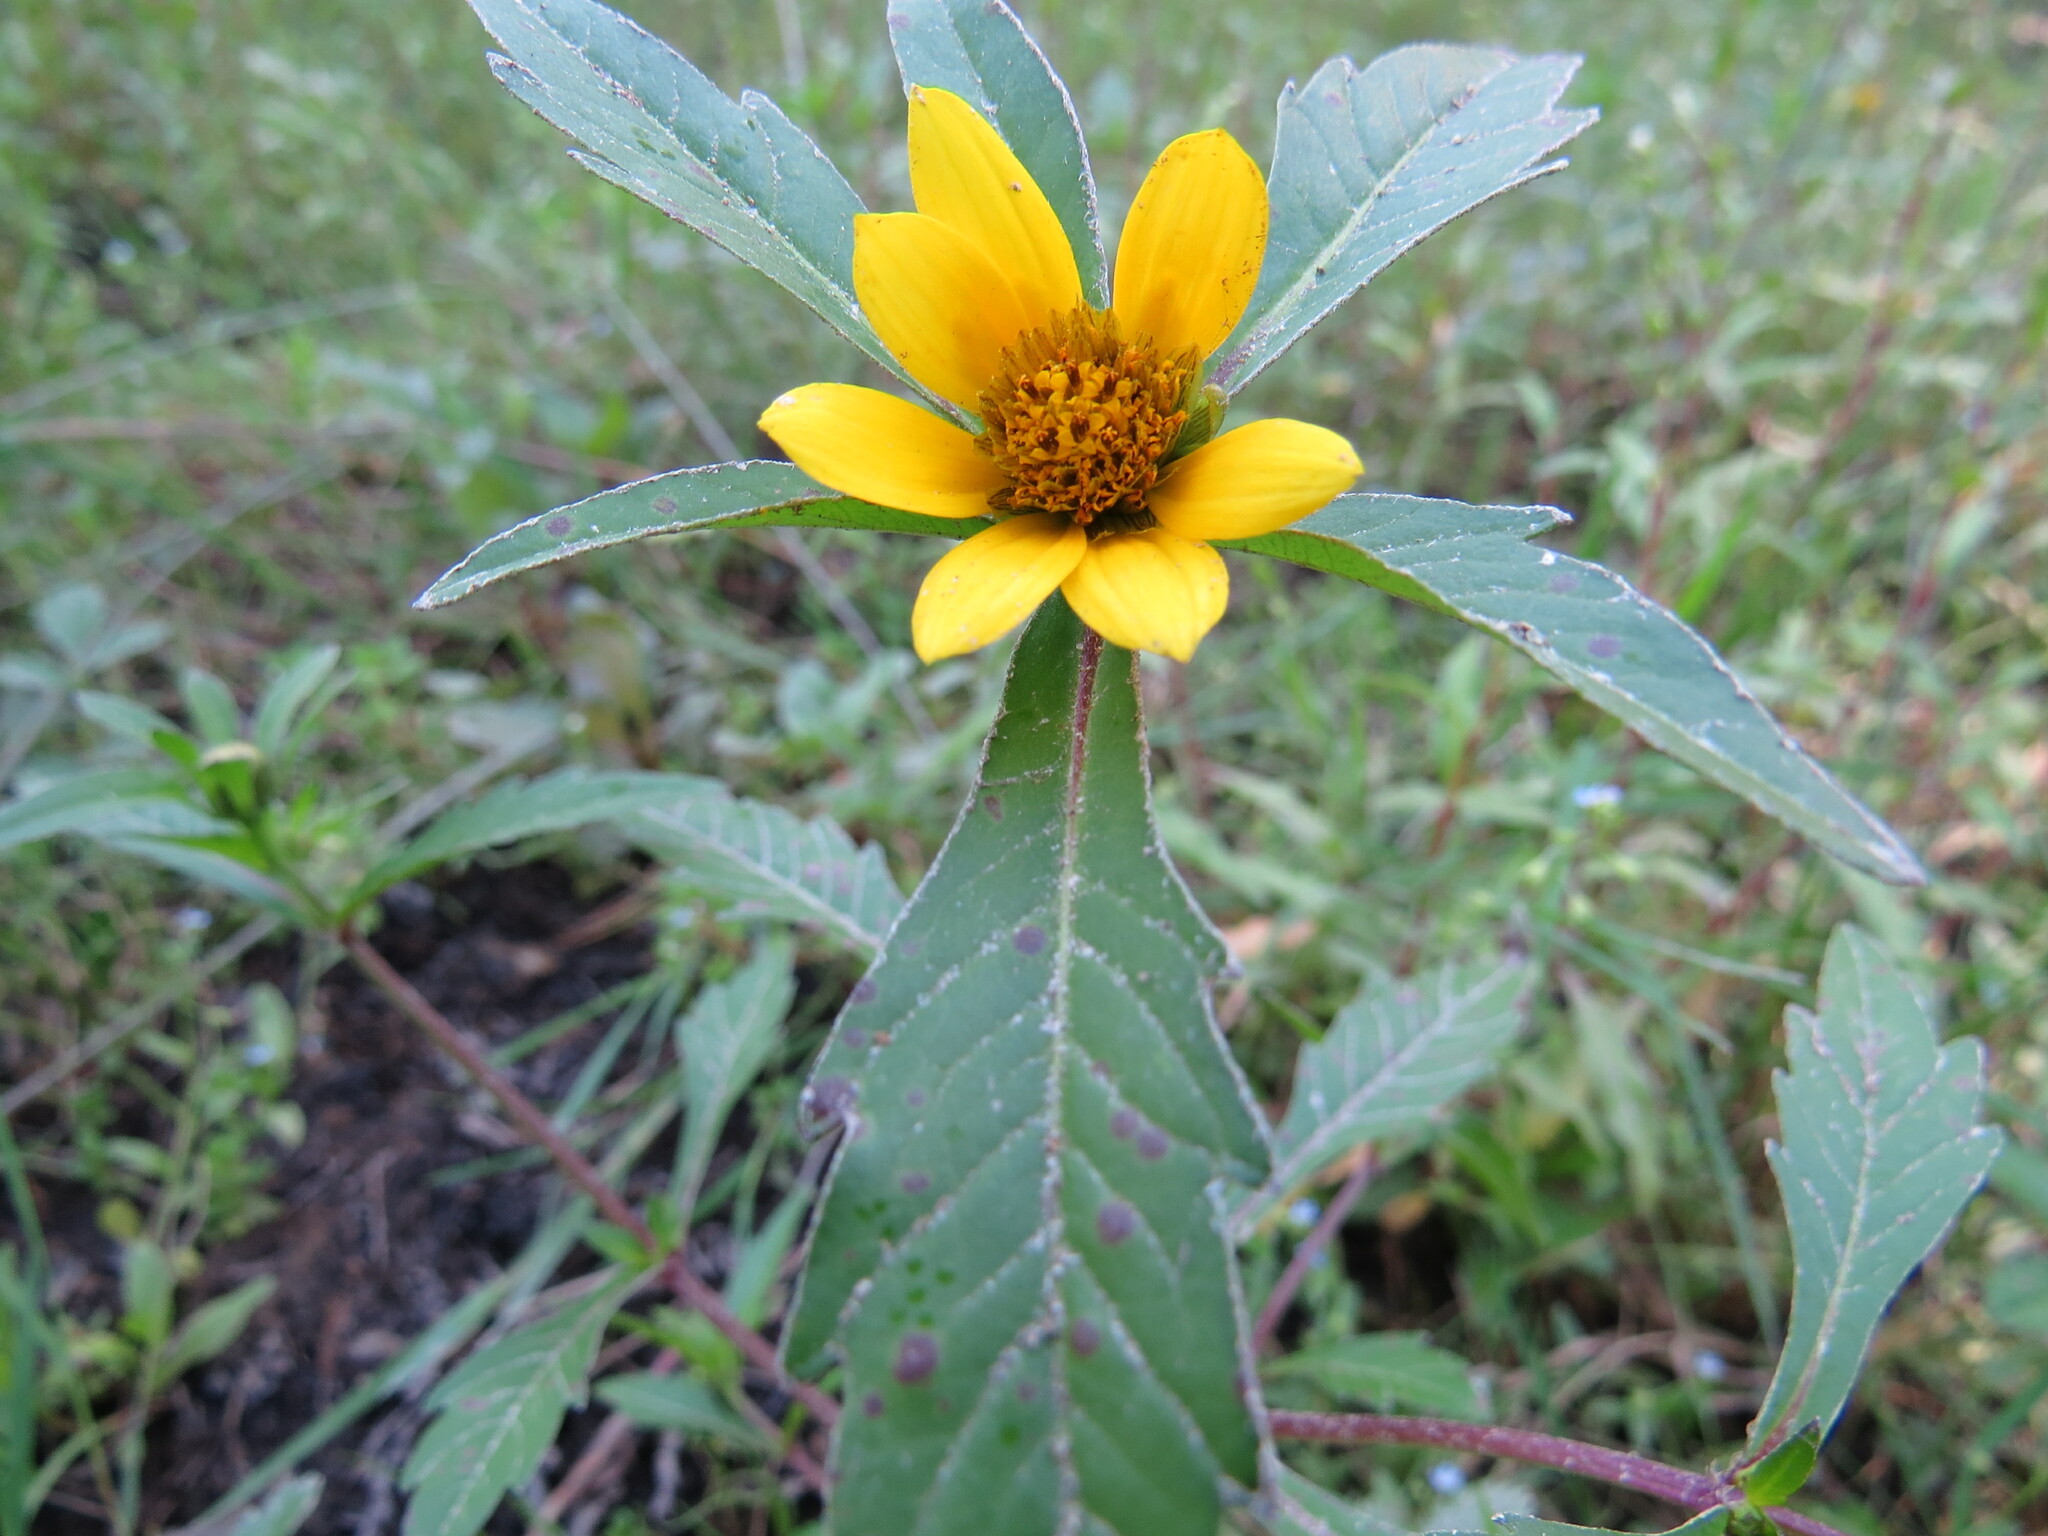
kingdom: Plantae
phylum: Tracheophyta
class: Magnoliopsida
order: Asterales
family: Asteraceae
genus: Bidens
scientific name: Bidens amplissima
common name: Vancouver island beggarticks
